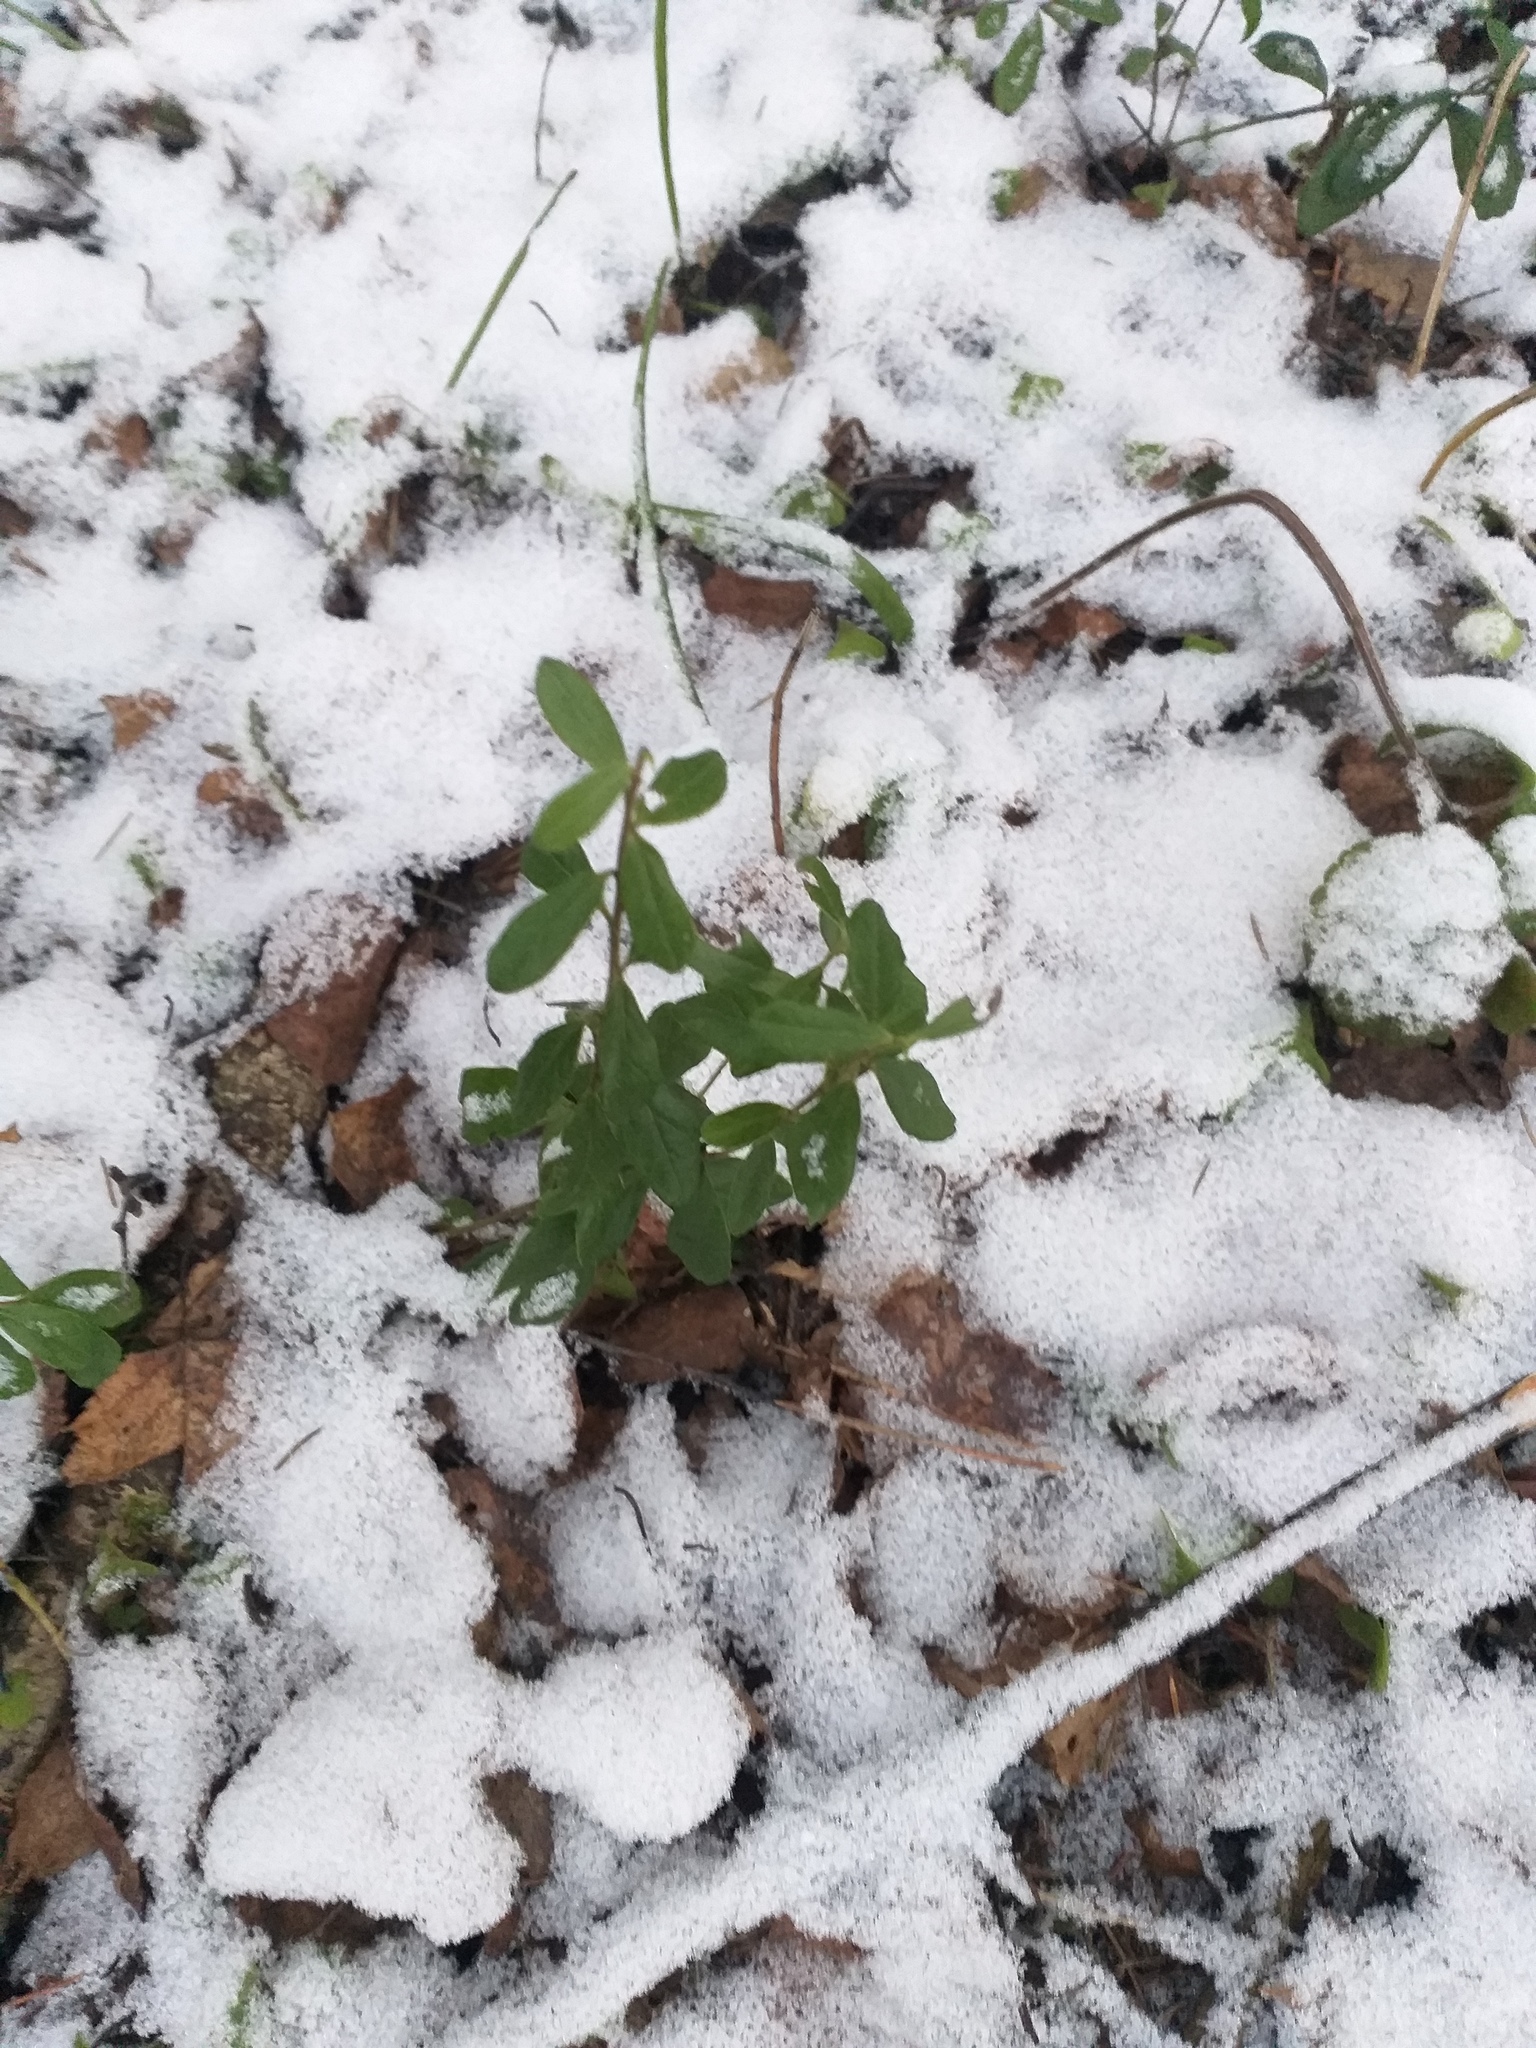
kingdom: Plantae
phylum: Tracheophyta
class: Magnoliopsida
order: Ericales
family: Ericaceae
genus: Vaccinium
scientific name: Vaccinium vitis-idaea
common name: Cowberry
